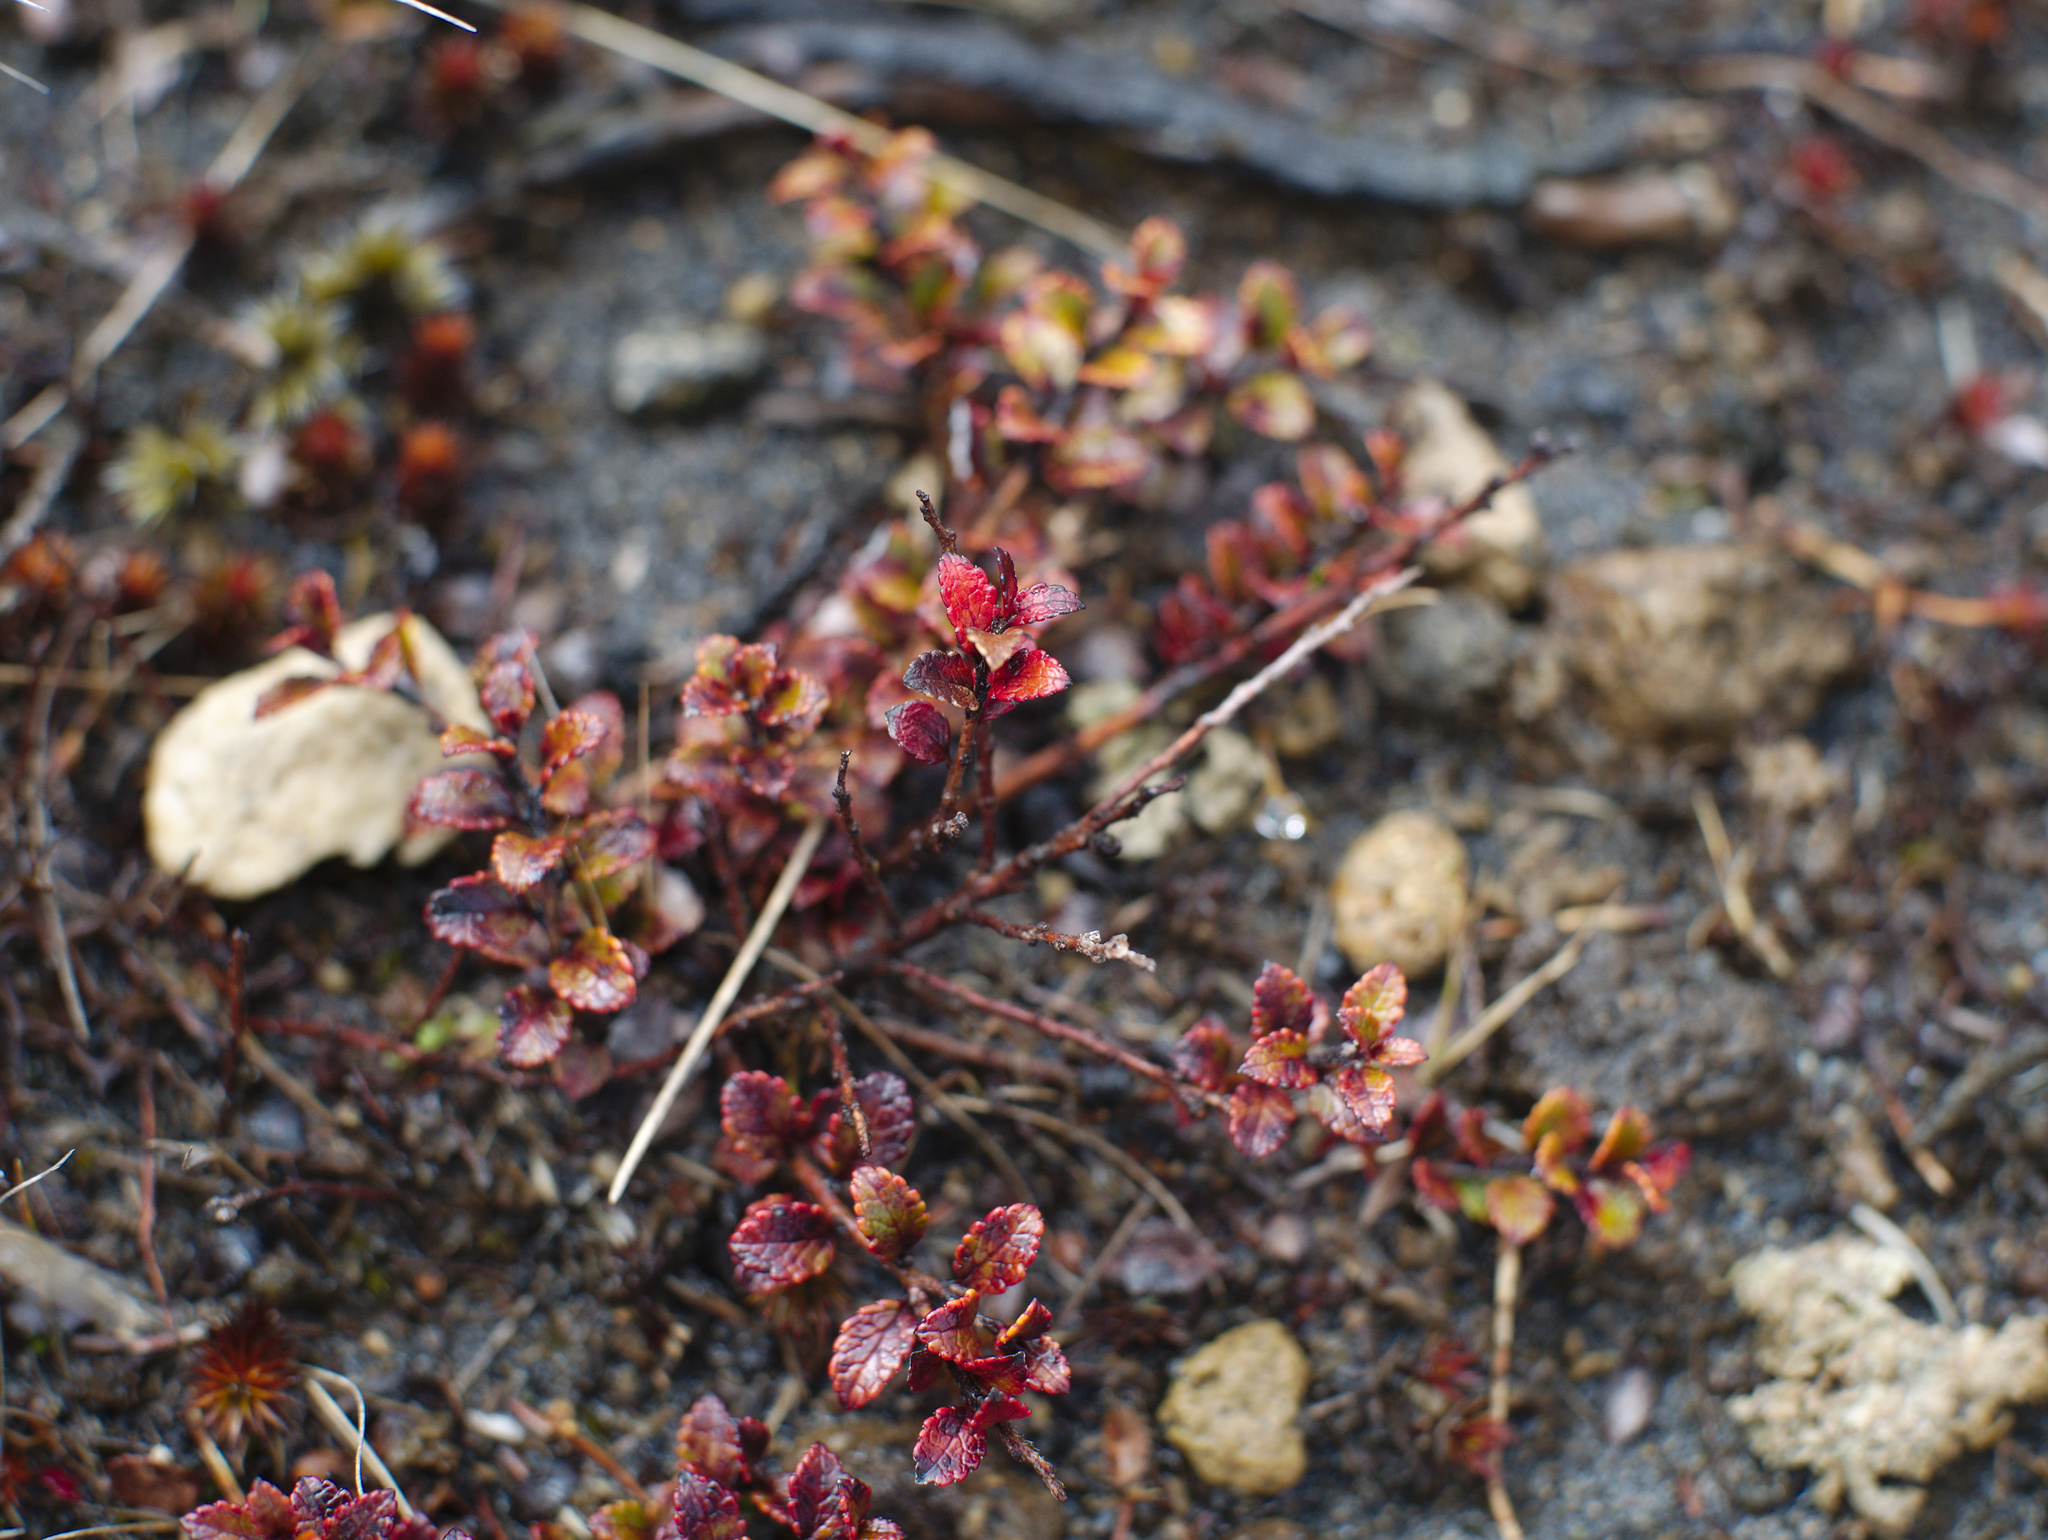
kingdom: Plantae
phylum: Tracheophyta
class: Magnoliopsida
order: Ericales
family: Ericaceae
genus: Gaultheria
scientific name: Gaultheria depressa
